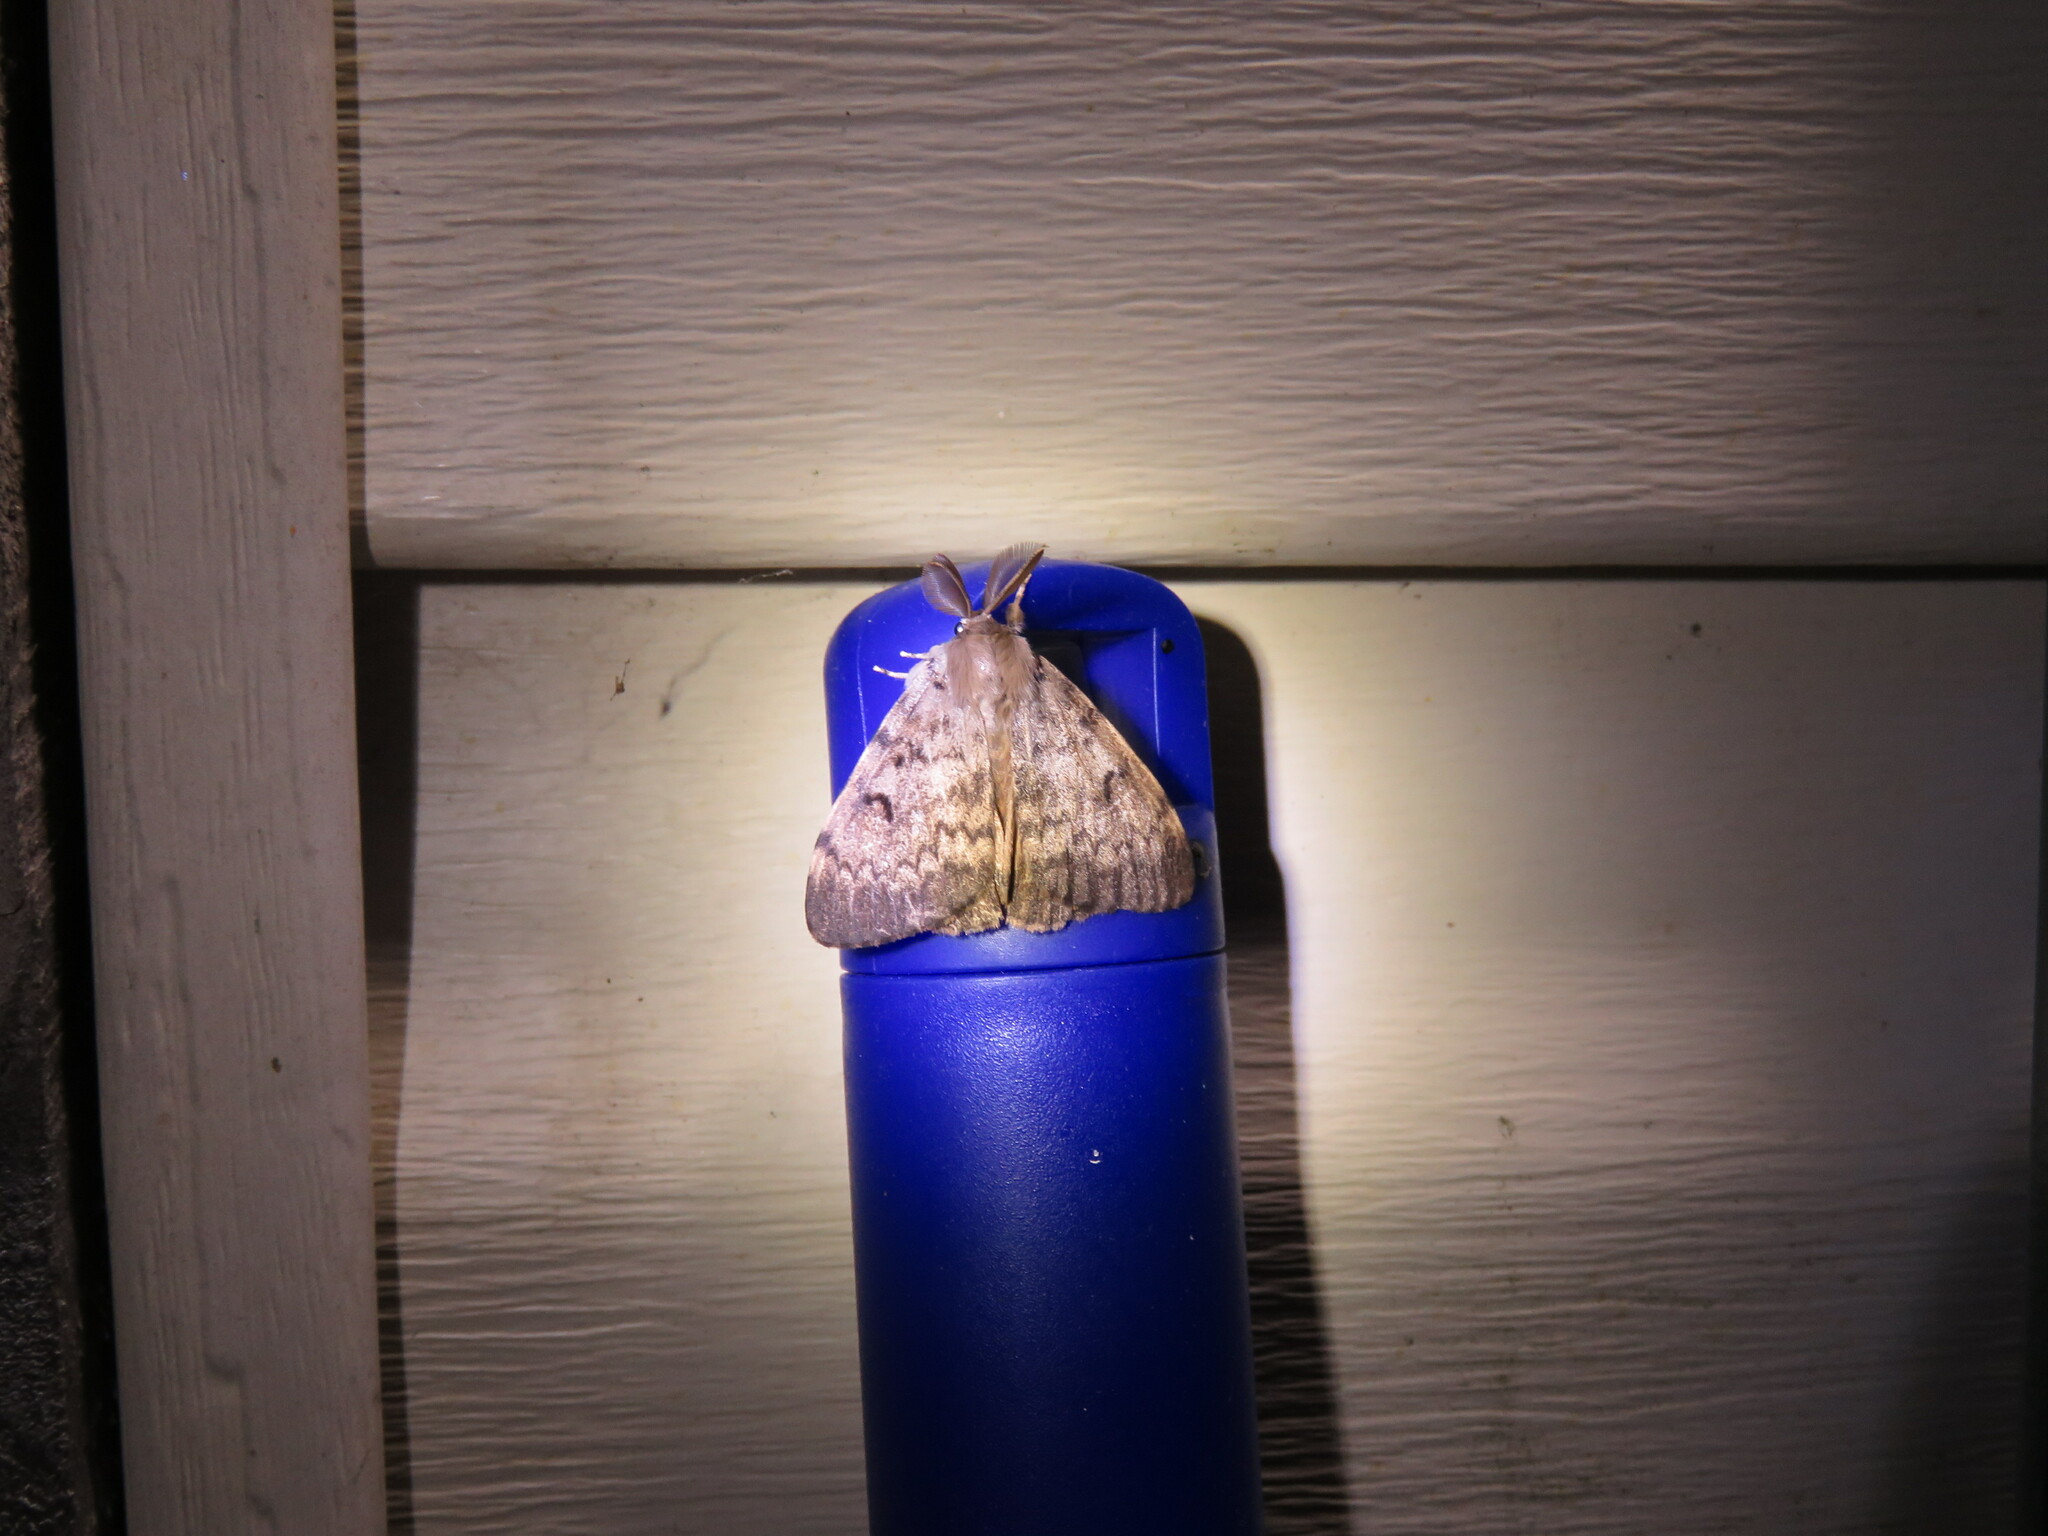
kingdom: Animalia
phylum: Arthropoda
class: Insecta
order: Lepidoptera
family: Erebidae
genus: Lymantria
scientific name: Lymantria dispar
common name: Gypsy moth
